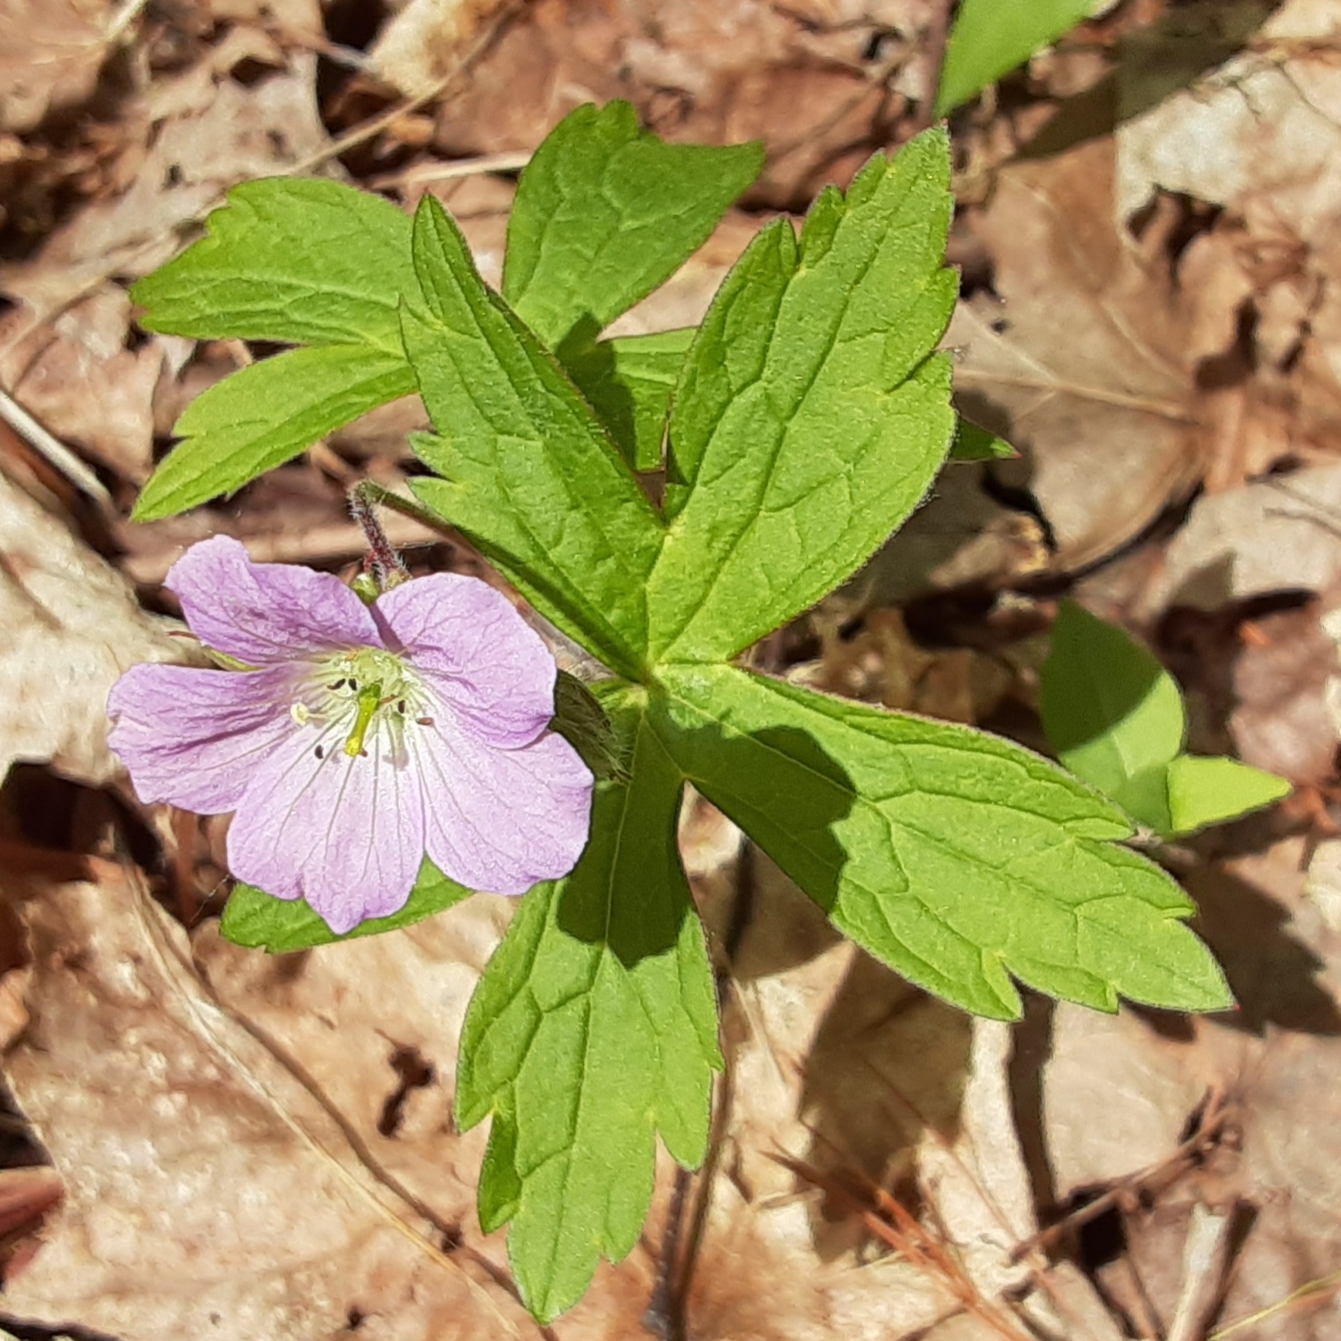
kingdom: Plantae
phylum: Tracheophyta
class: Magnoliopsida
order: Geraniales
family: Geraniaceae
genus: Geranium
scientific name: Geranium maculatum
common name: Spotted geranium
